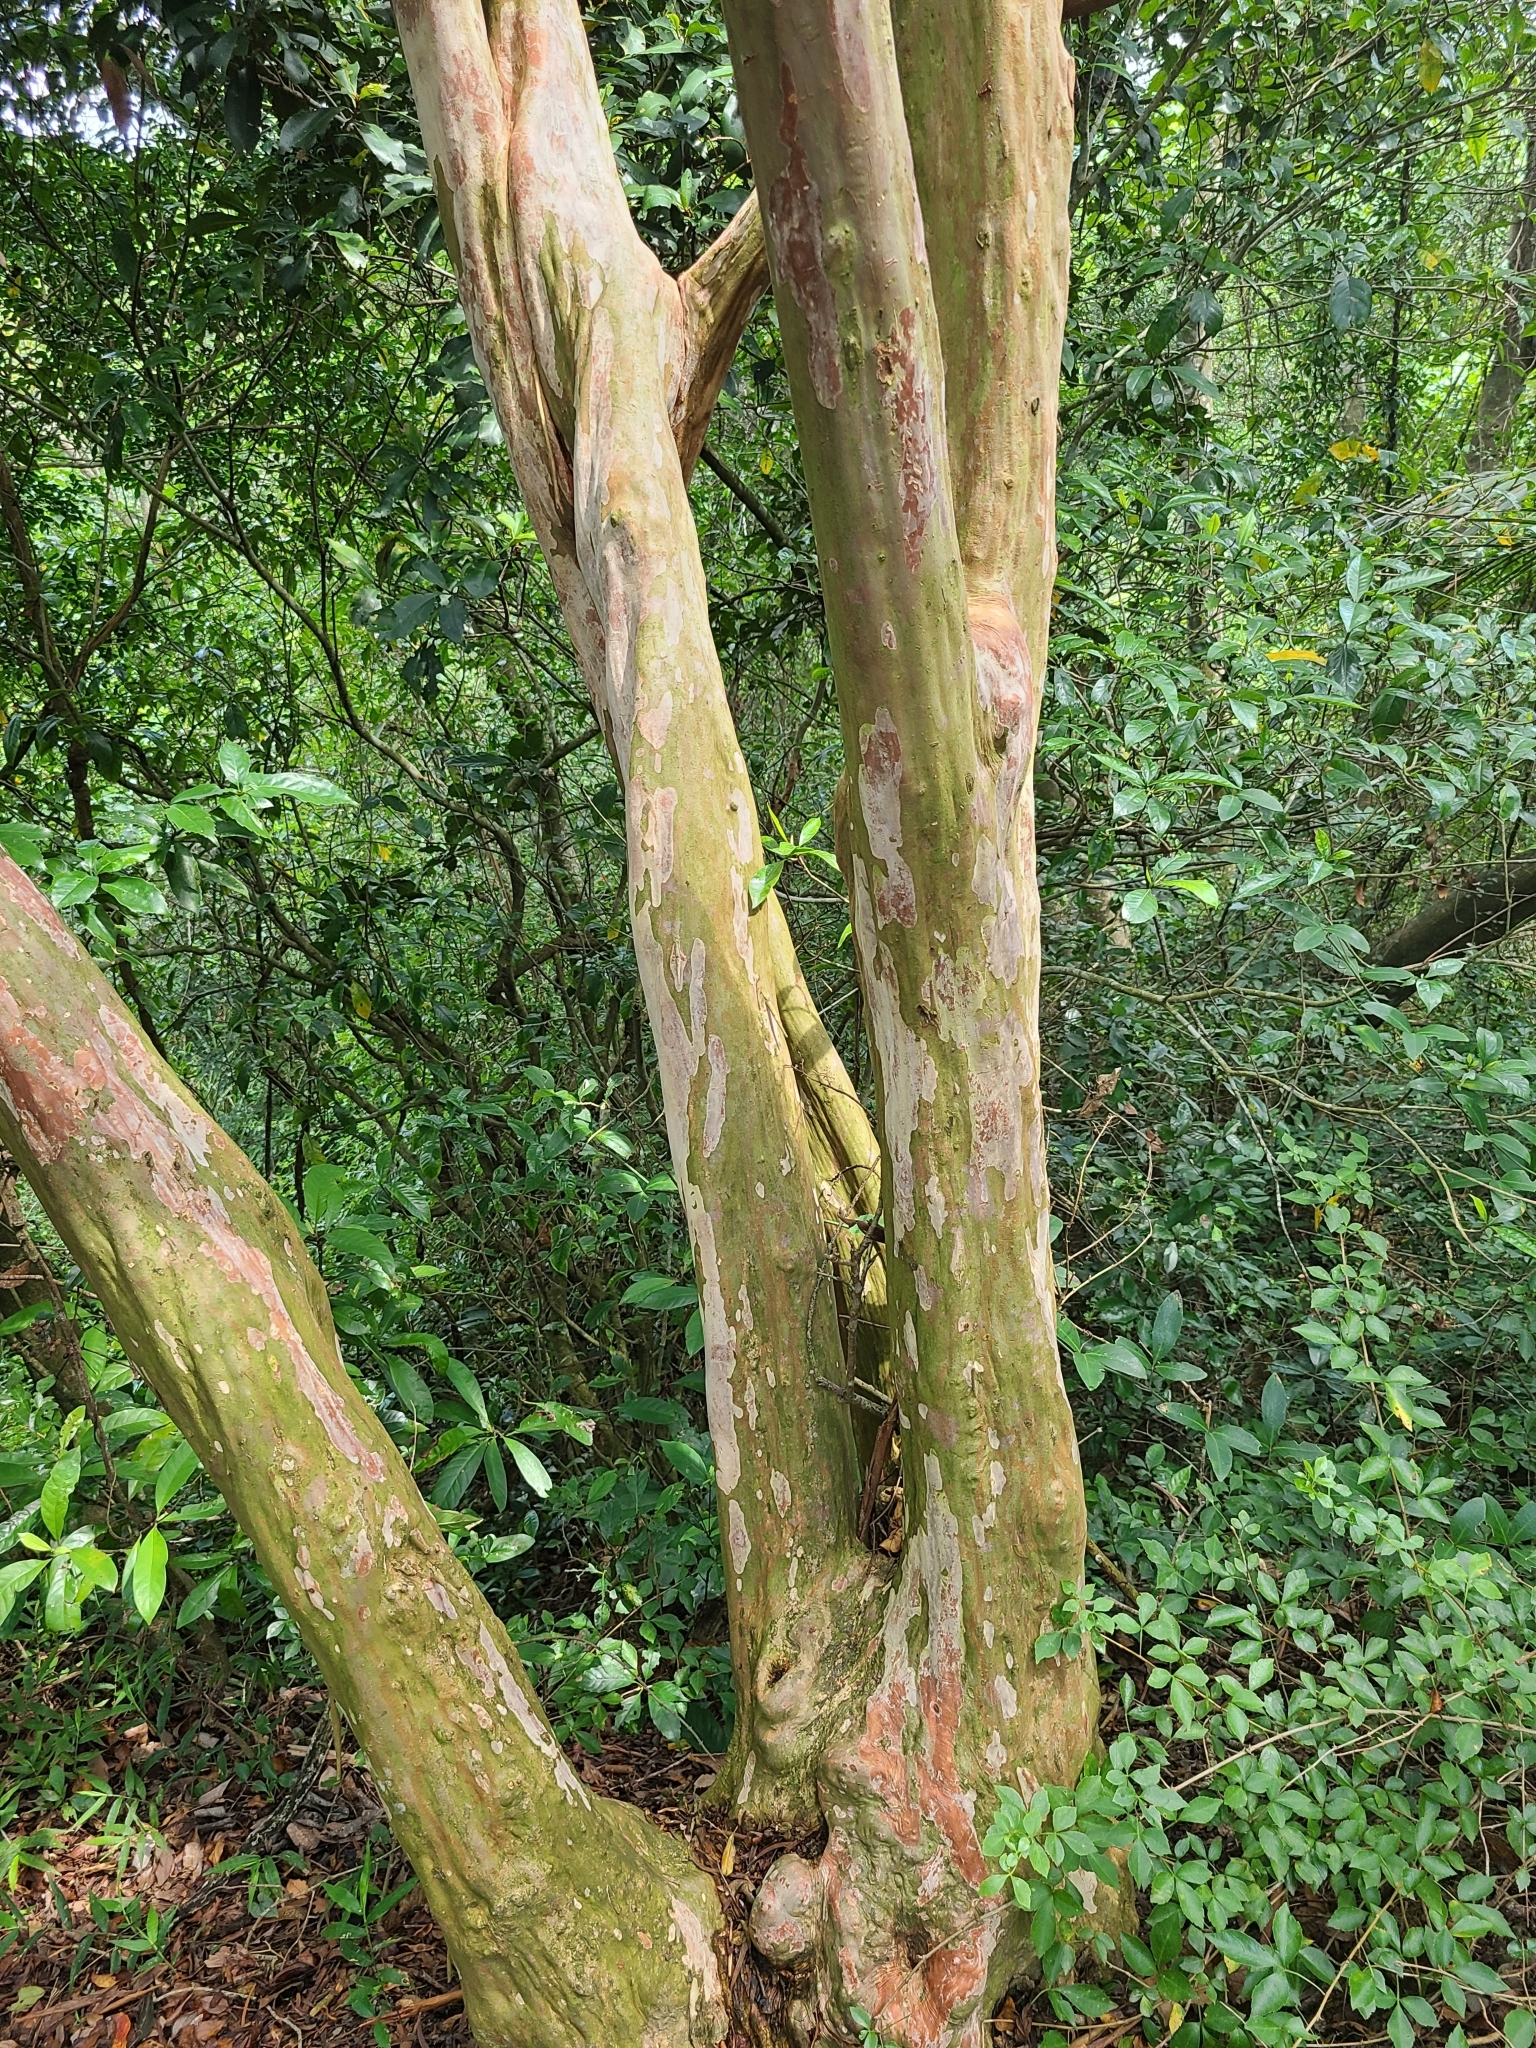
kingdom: Plantae
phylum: Tracheophyta
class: Magnoliopsida
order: Myrtales
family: Lythraceae
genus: Lagerstroemia
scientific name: Lagerstroemia subcostata
